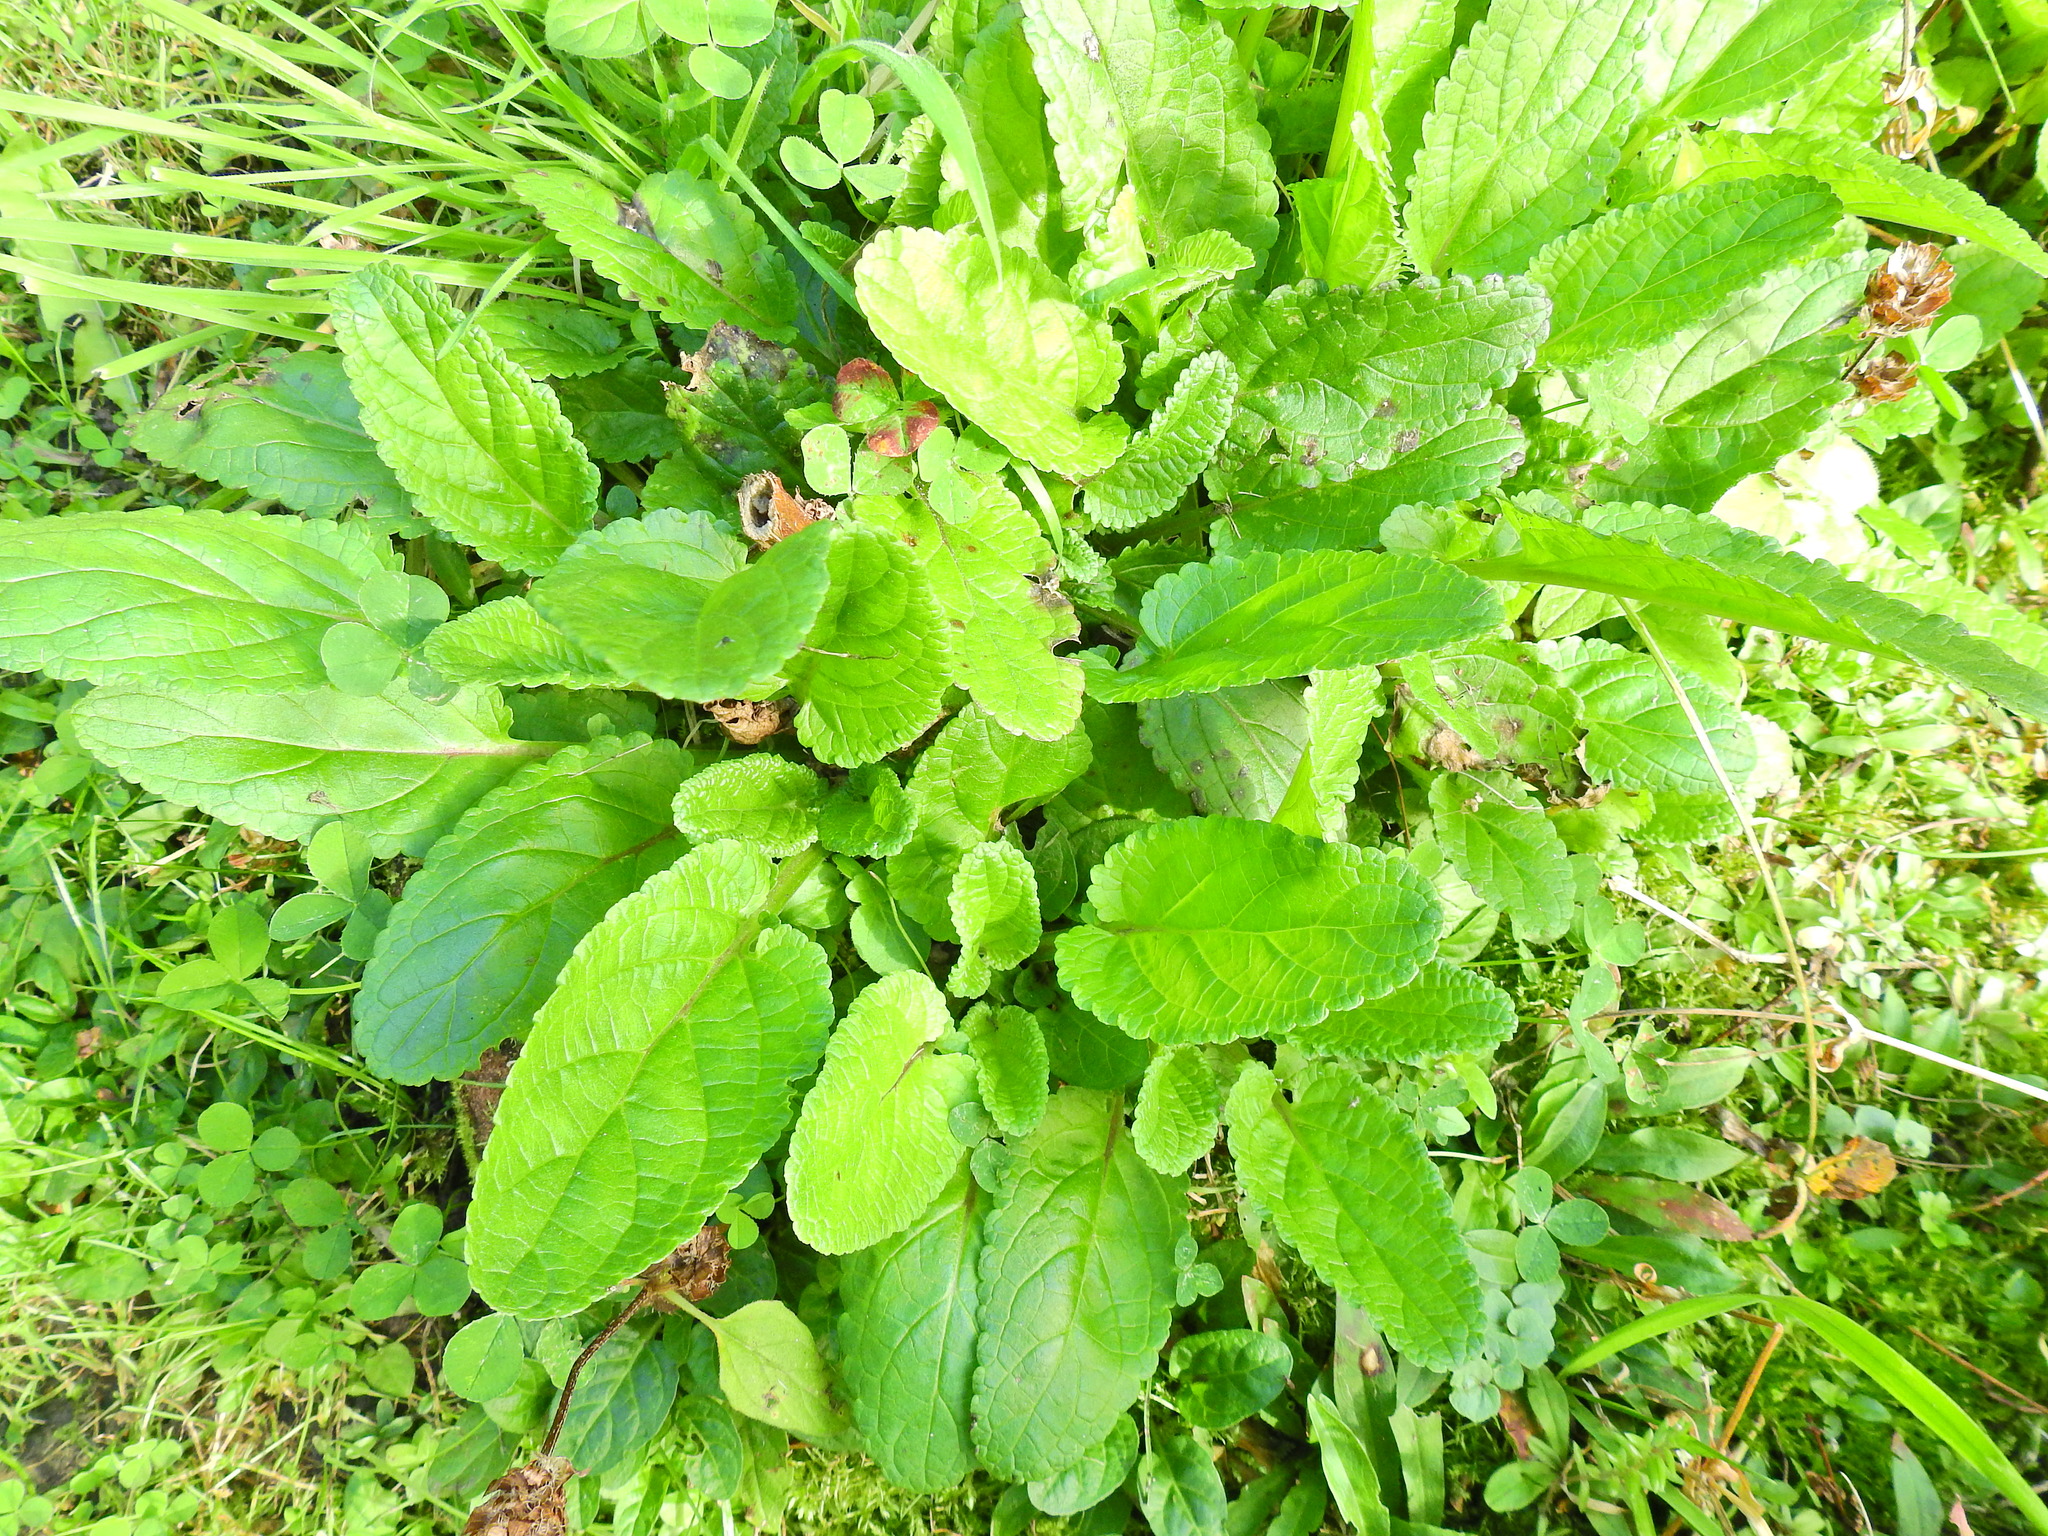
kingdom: Plantae
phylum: Tracheophyta
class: Magnoliopsida
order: Lamiales
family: Scrophulariaceae
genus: Scrophularia
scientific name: Scrophularia auriculata
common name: Water betony
